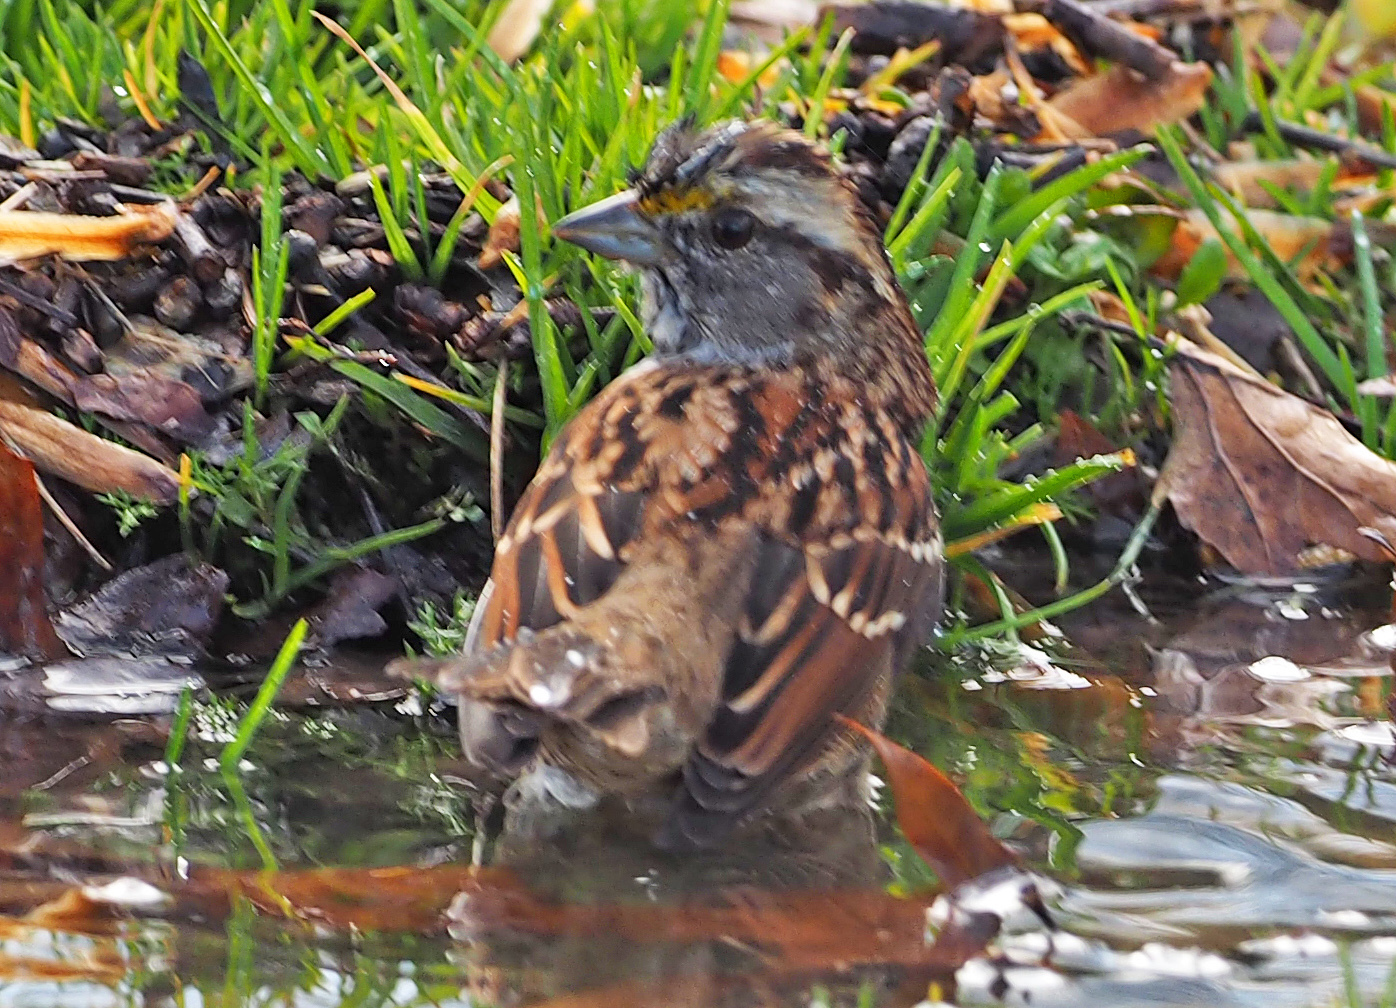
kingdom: Animalia
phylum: Chordata
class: Aves
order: Passeriformes
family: Passerellidae
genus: Zonotrichia
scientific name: Zonotrichia albicollis
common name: White-throated sparrow
